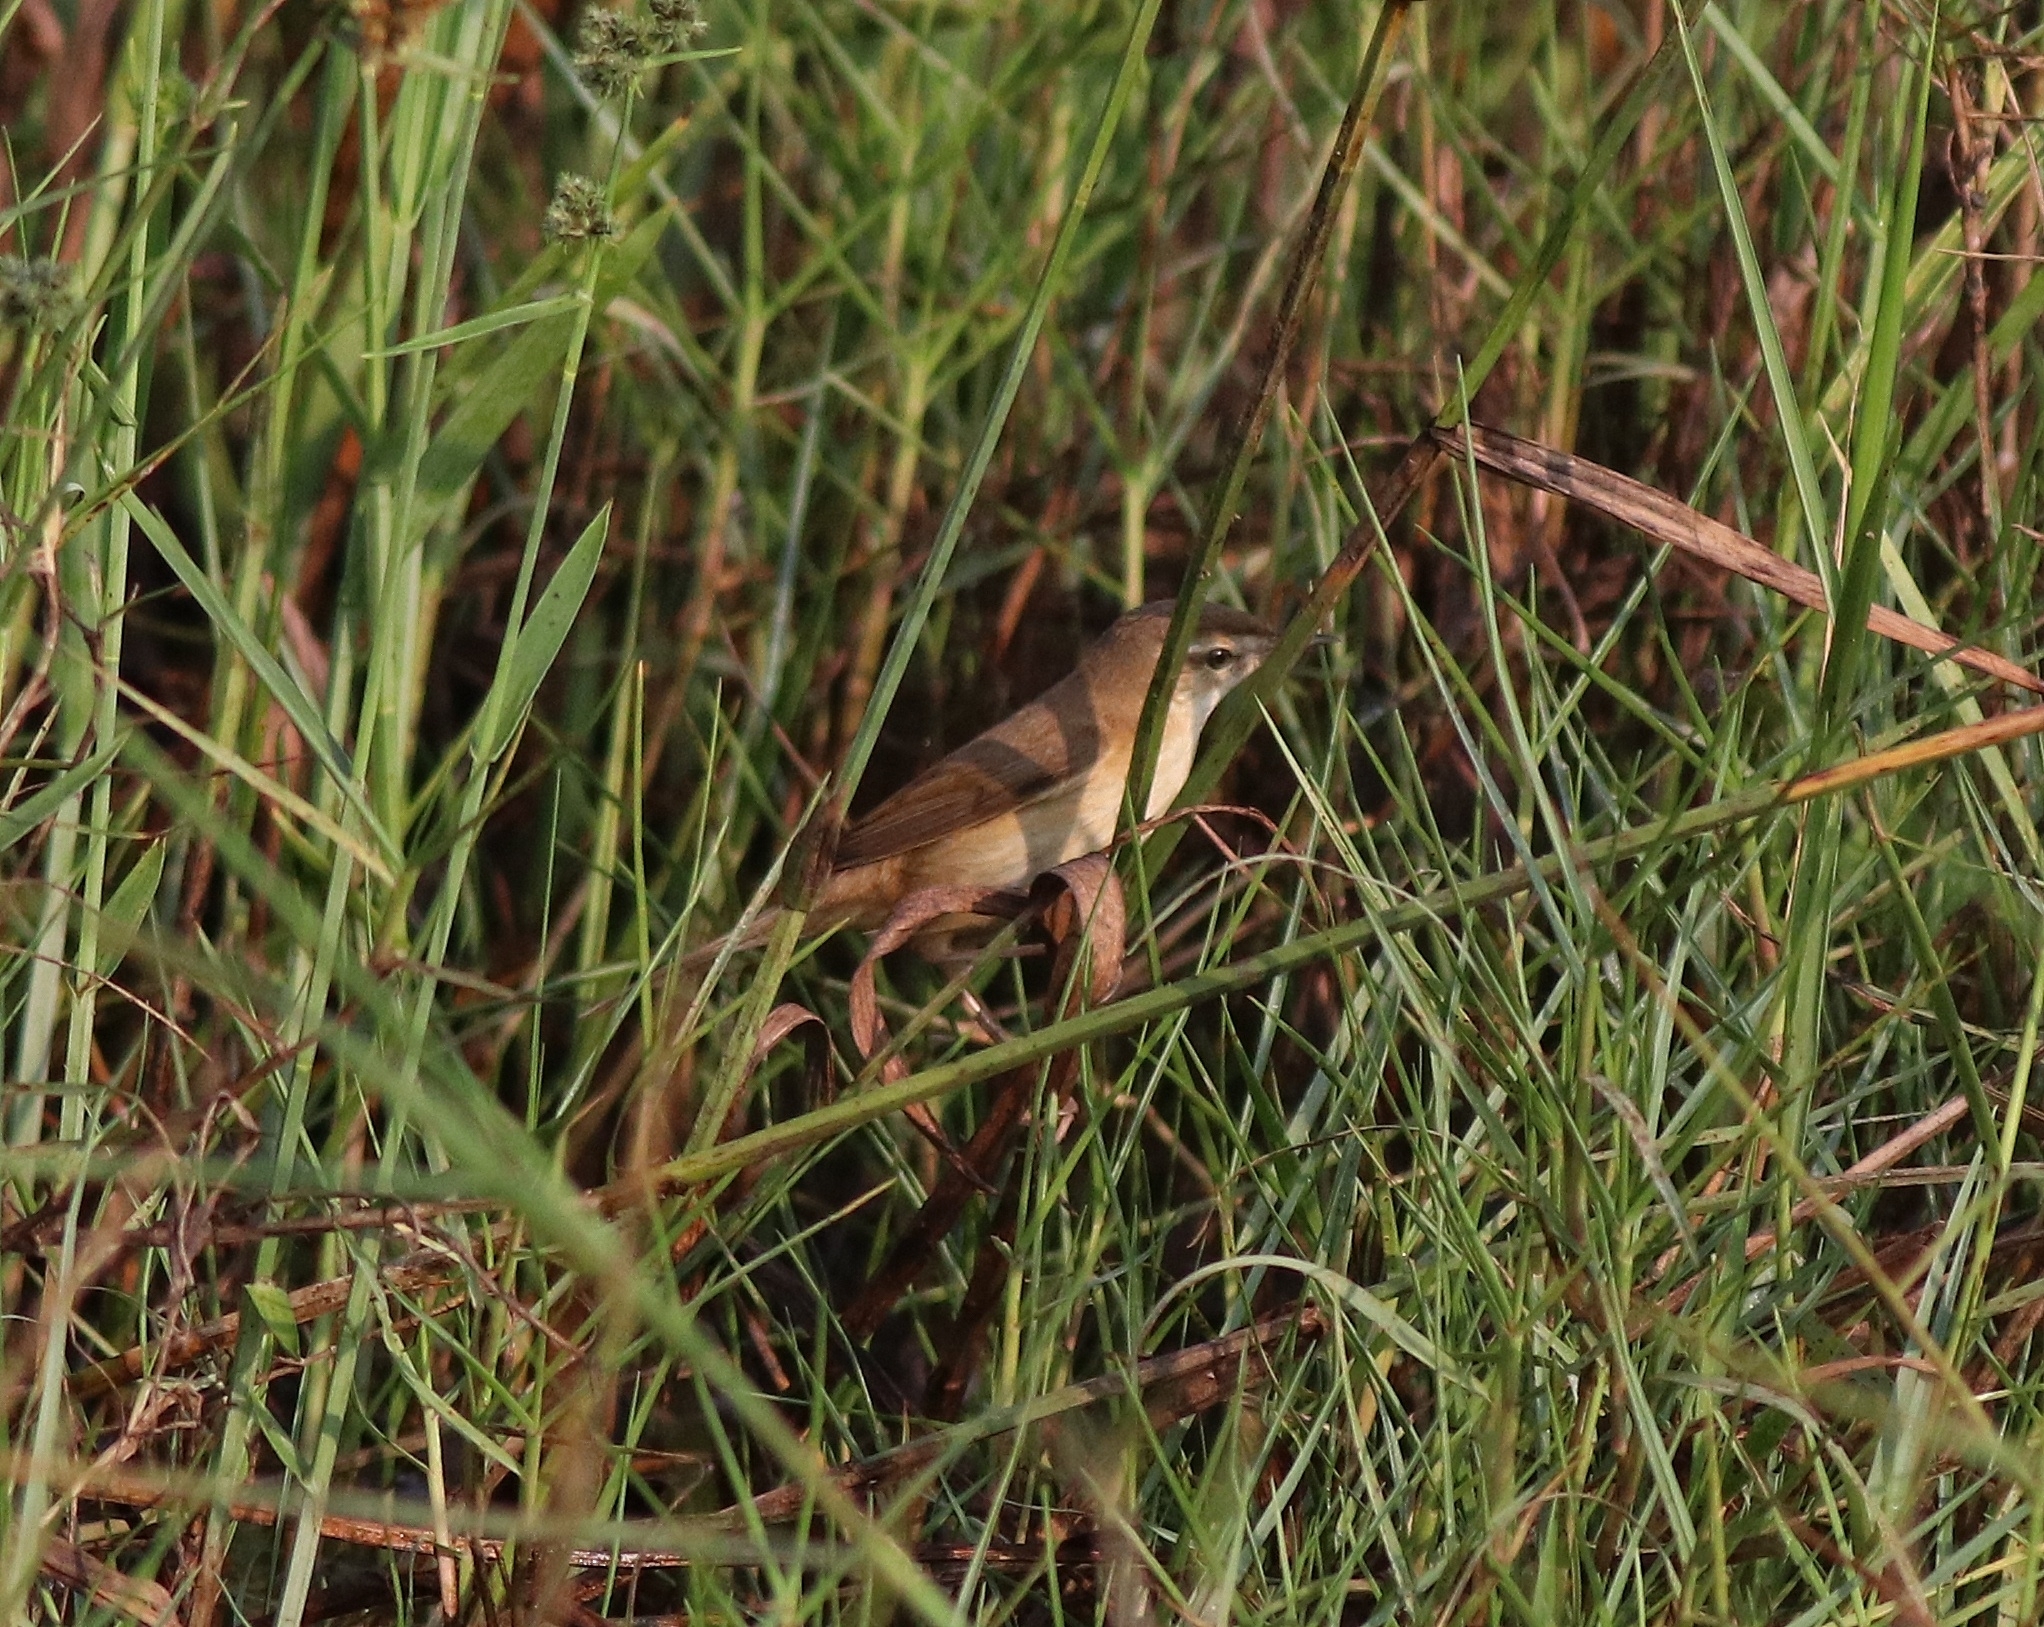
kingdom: Animalia
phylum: Chordata
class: Aves
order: Passeriformes
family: Acrocephalidae
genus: Acrocephalus
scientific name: Acrocephalus agricola
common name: Paddyfield warbler
